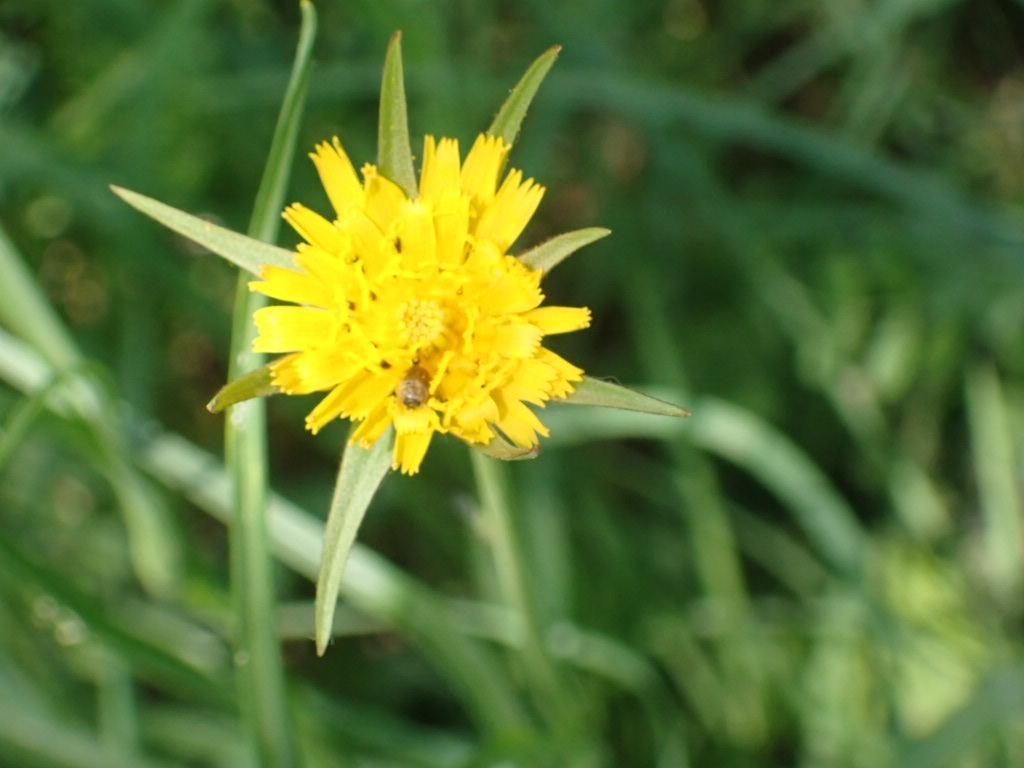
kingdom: Plantae
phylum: Tracheophyta
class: Magnoliopsida
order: Asterales
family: Asteraceae
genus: Tragopogon
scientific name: Tragopogon minor
